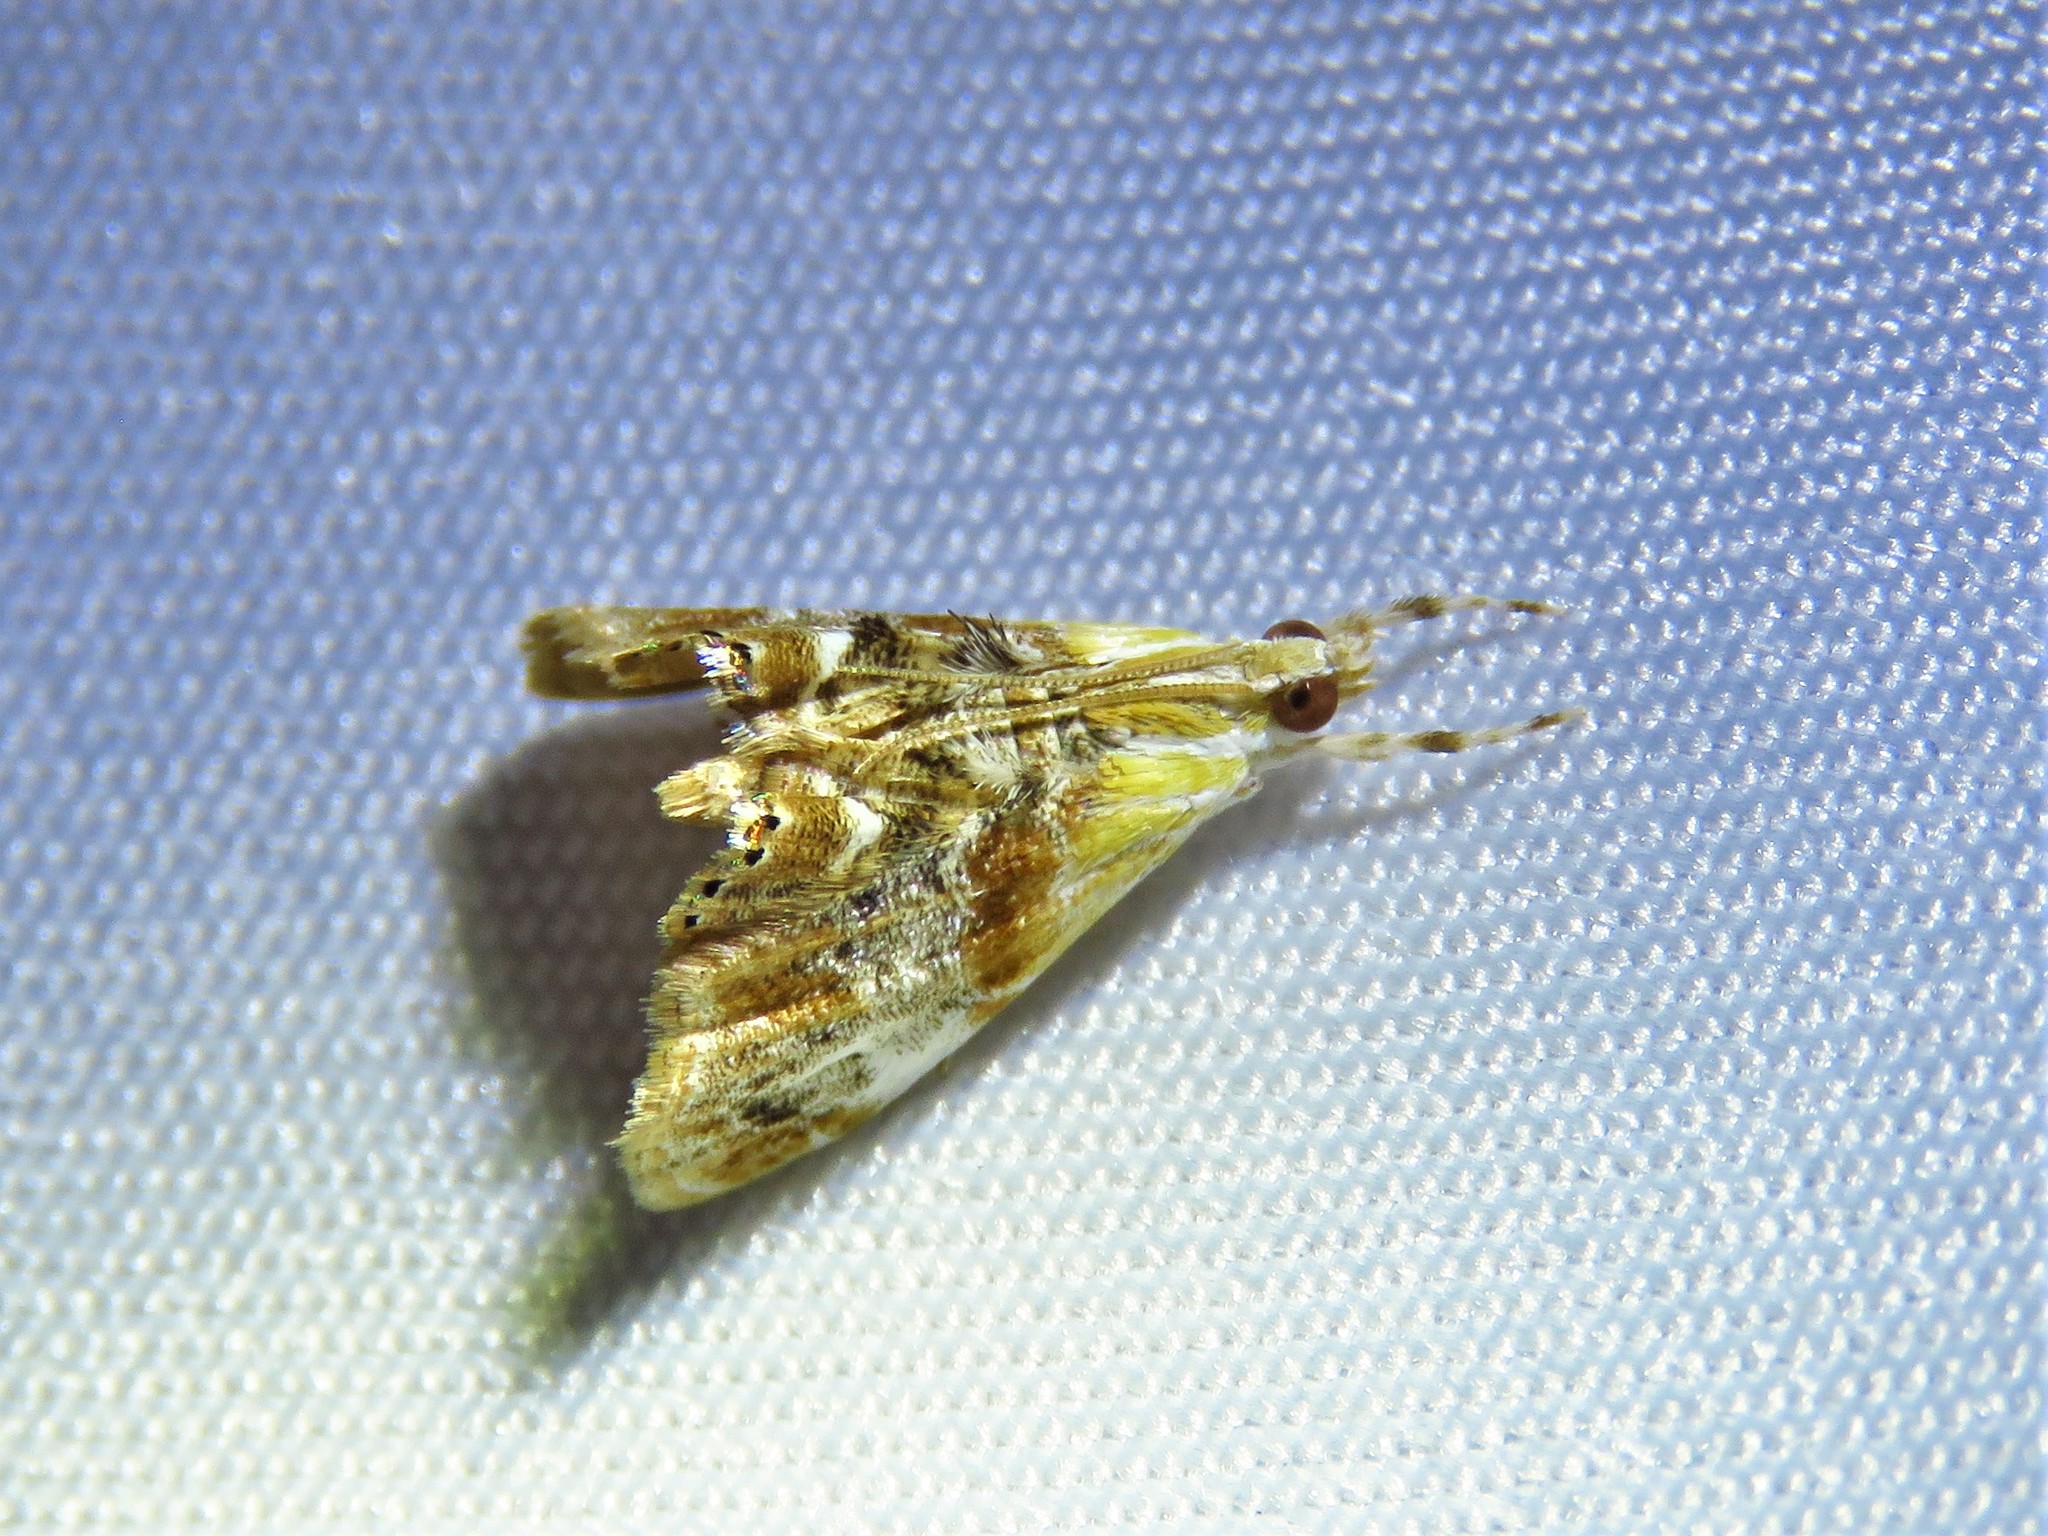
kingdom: Animalia
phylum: Arthropoda
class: Insecta
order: Lepidoptera
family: Crambidae
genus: Dicymolomia
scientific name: Dicymolomia julianalis
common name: Julia's dicymolomia moth
